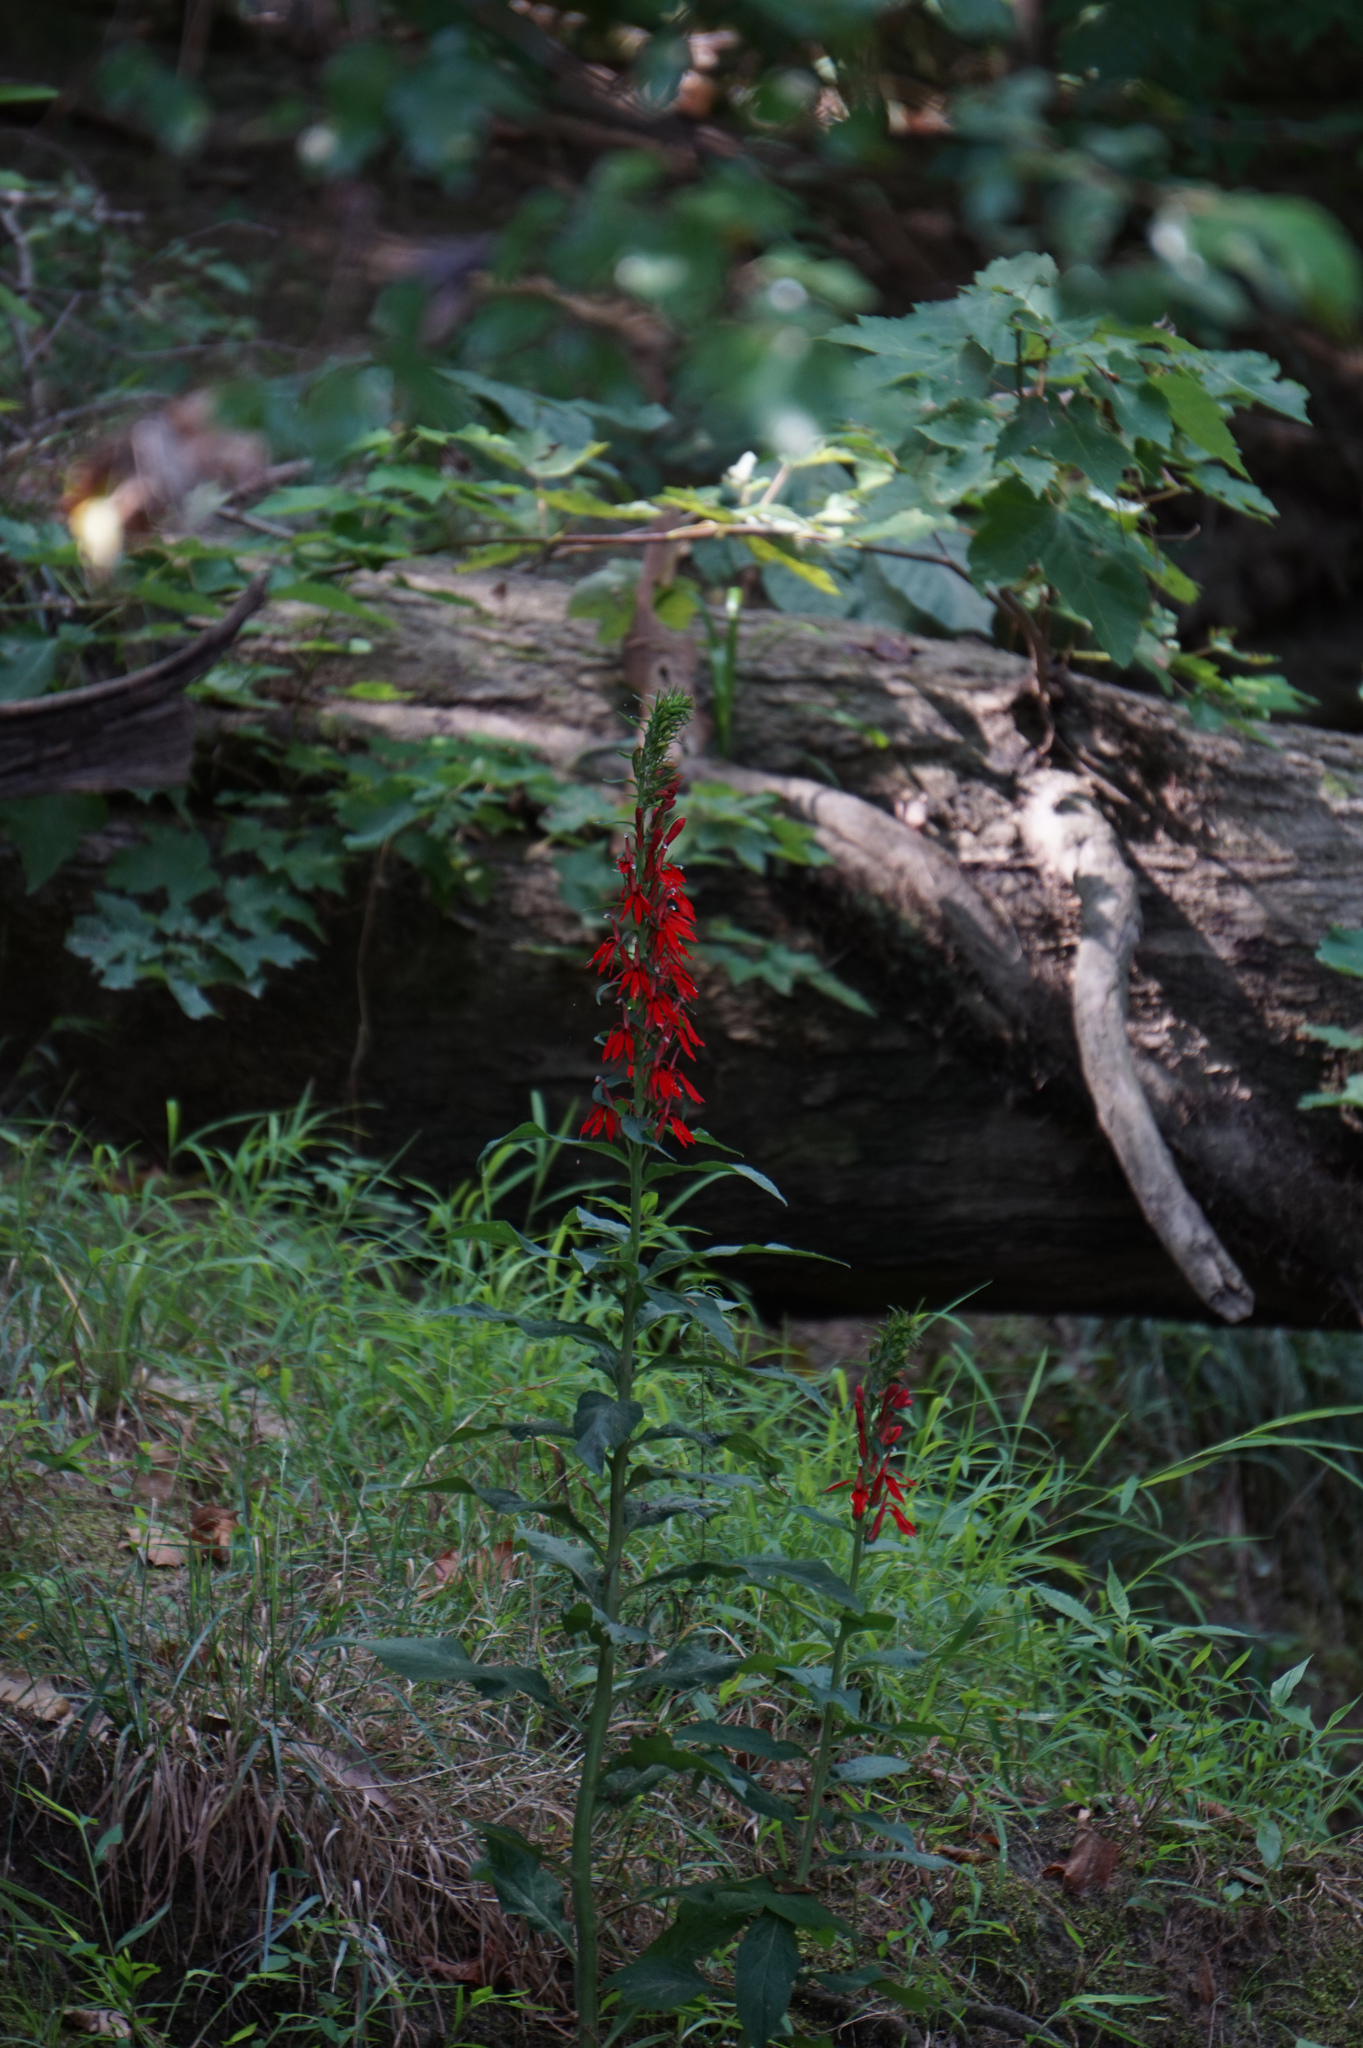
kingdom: Plantae
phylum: Tracheophyta
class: Magnoliopsida
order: Asterales
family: Campanulaceae
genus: Lobelia
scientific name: Lobelia cardinalis
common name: Cardinal flower
